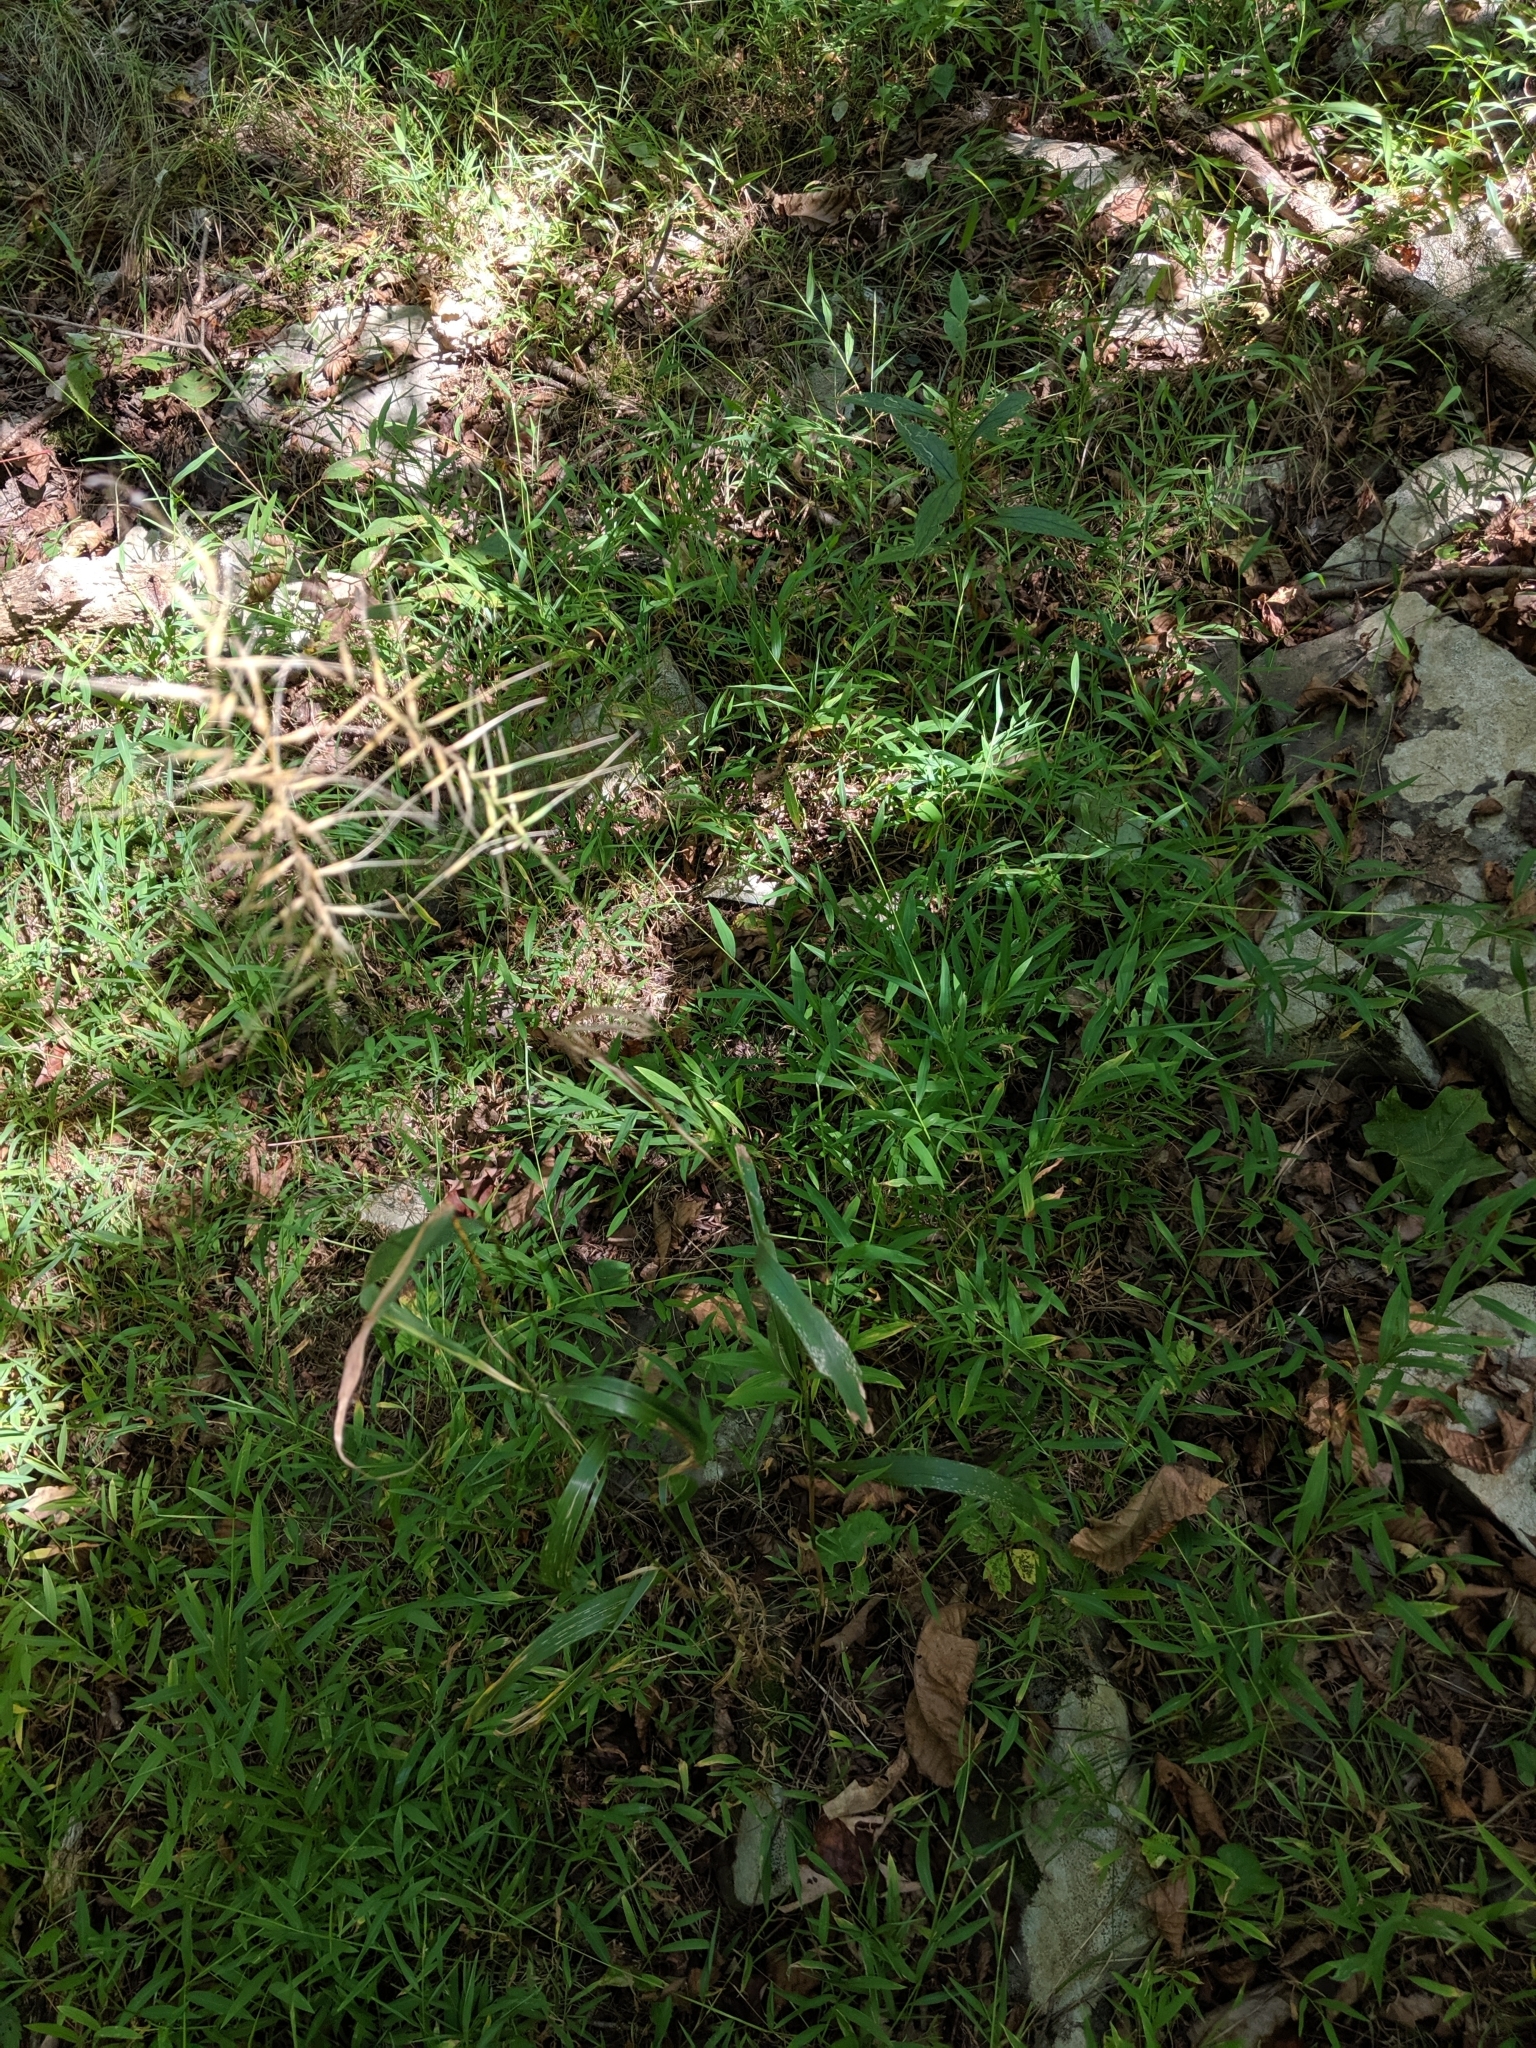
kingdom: Plantae
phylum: Tracheophyta
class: Liliopsida
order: Poales
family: Poaceae
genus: Elymus
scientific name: Elymus hystrix
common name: Bottlebrush grass
